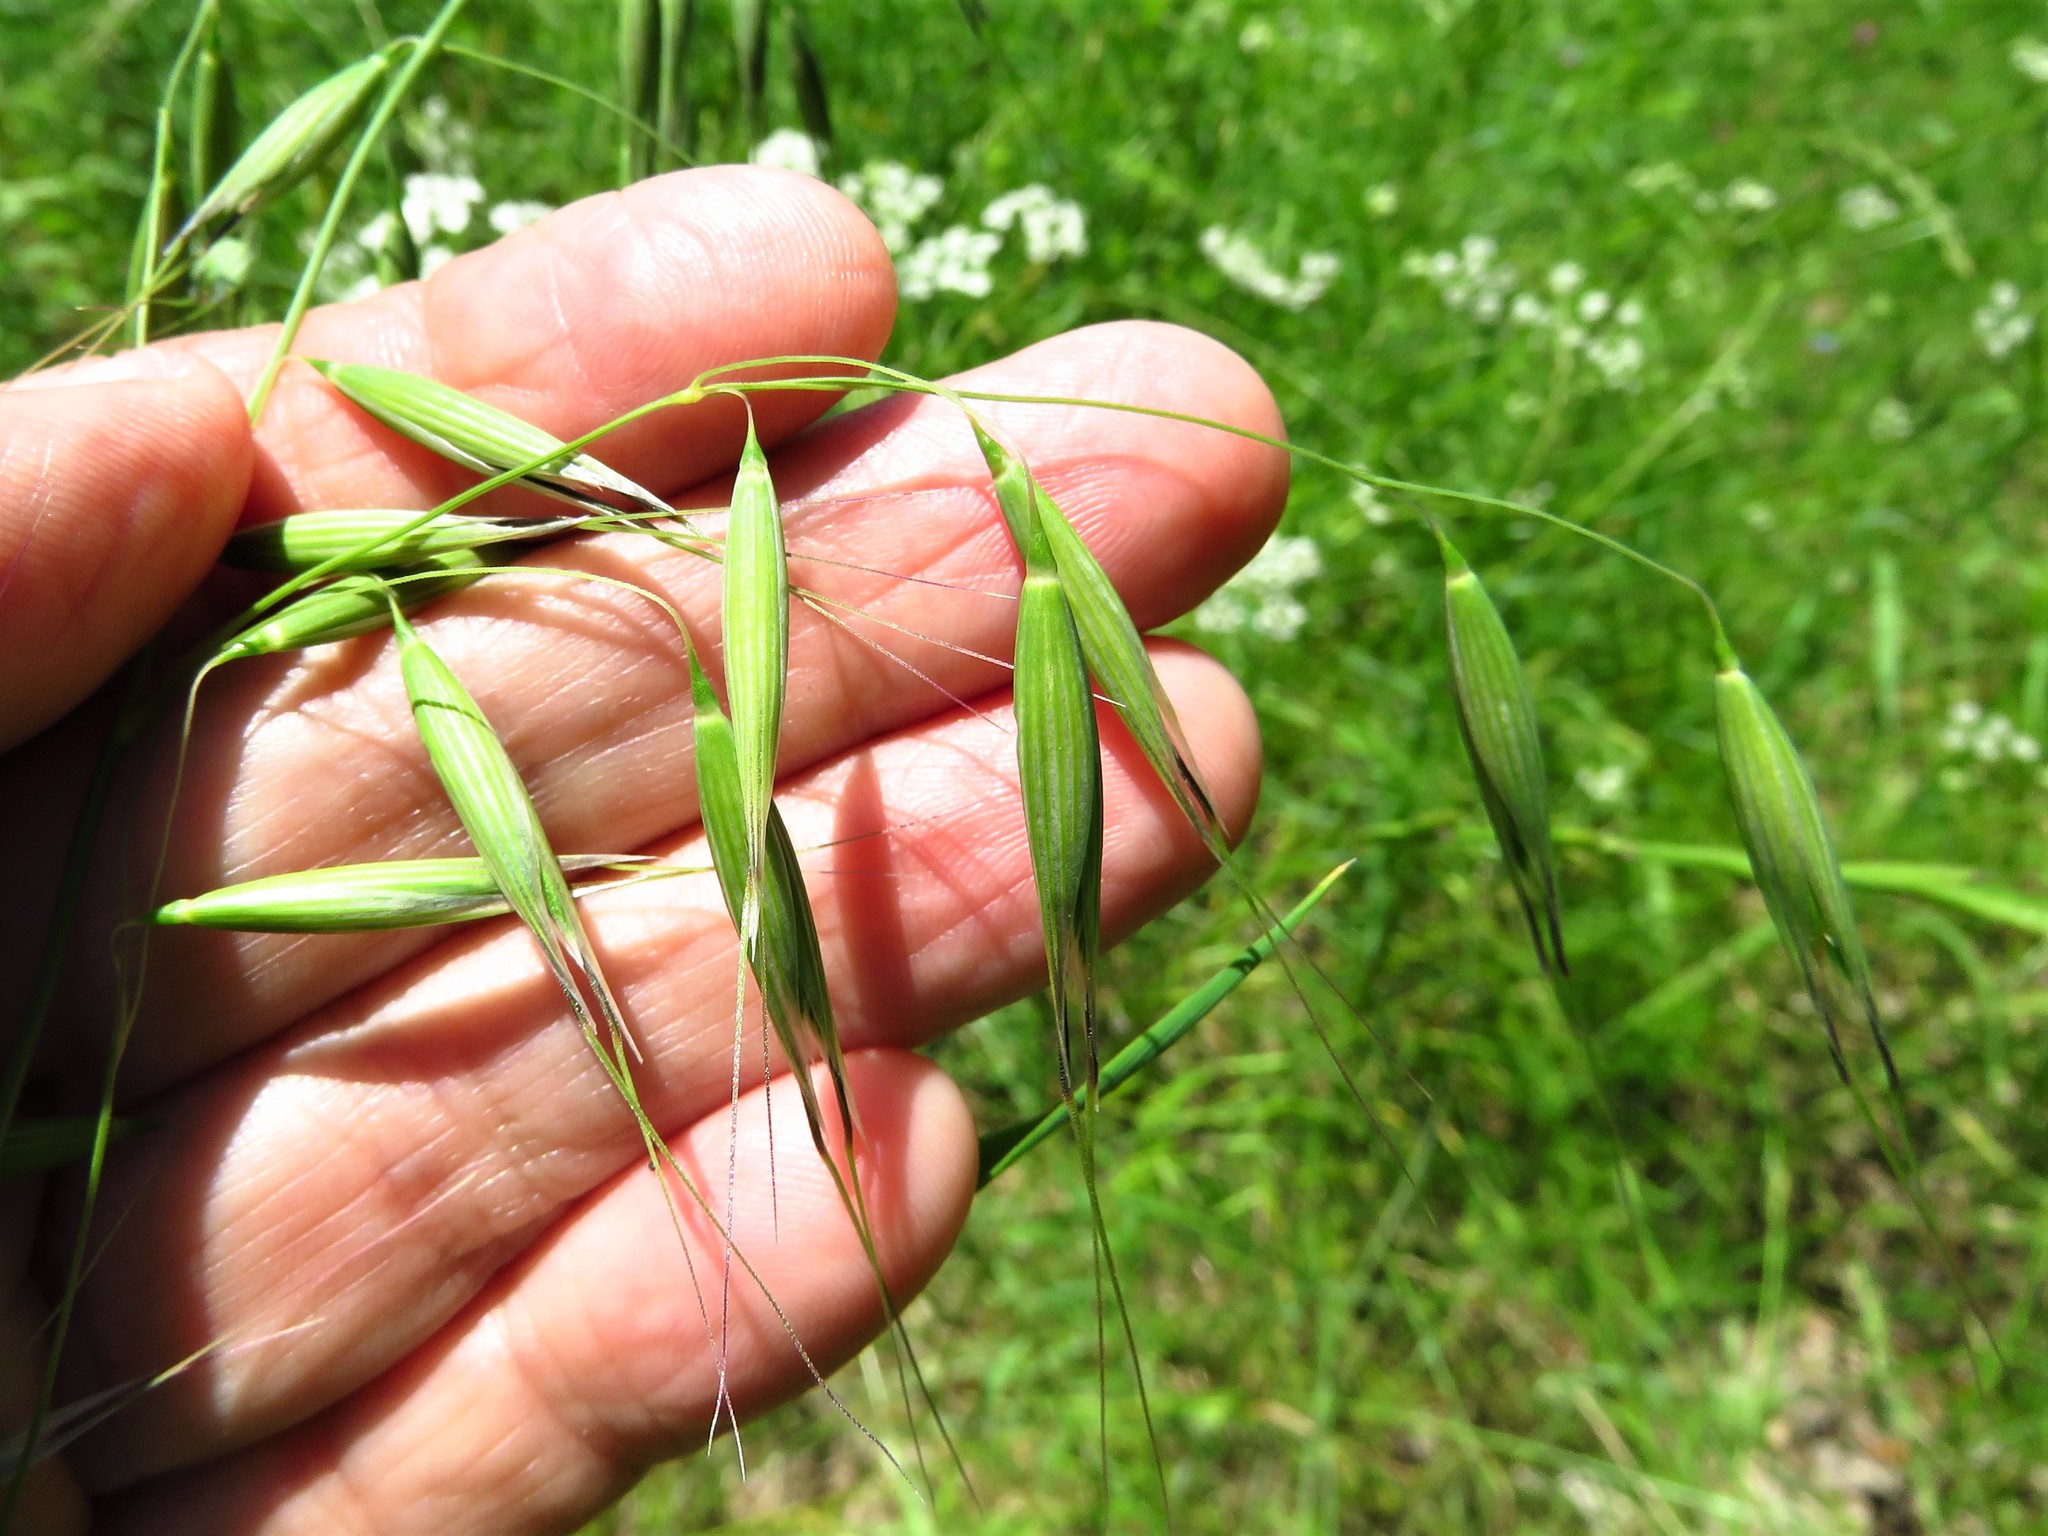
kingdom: Plantae
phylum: Tracheophyta
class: Liliopsida
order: Poales
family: Poaceae
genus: Avena
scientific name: Avena sativa
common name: Oat
